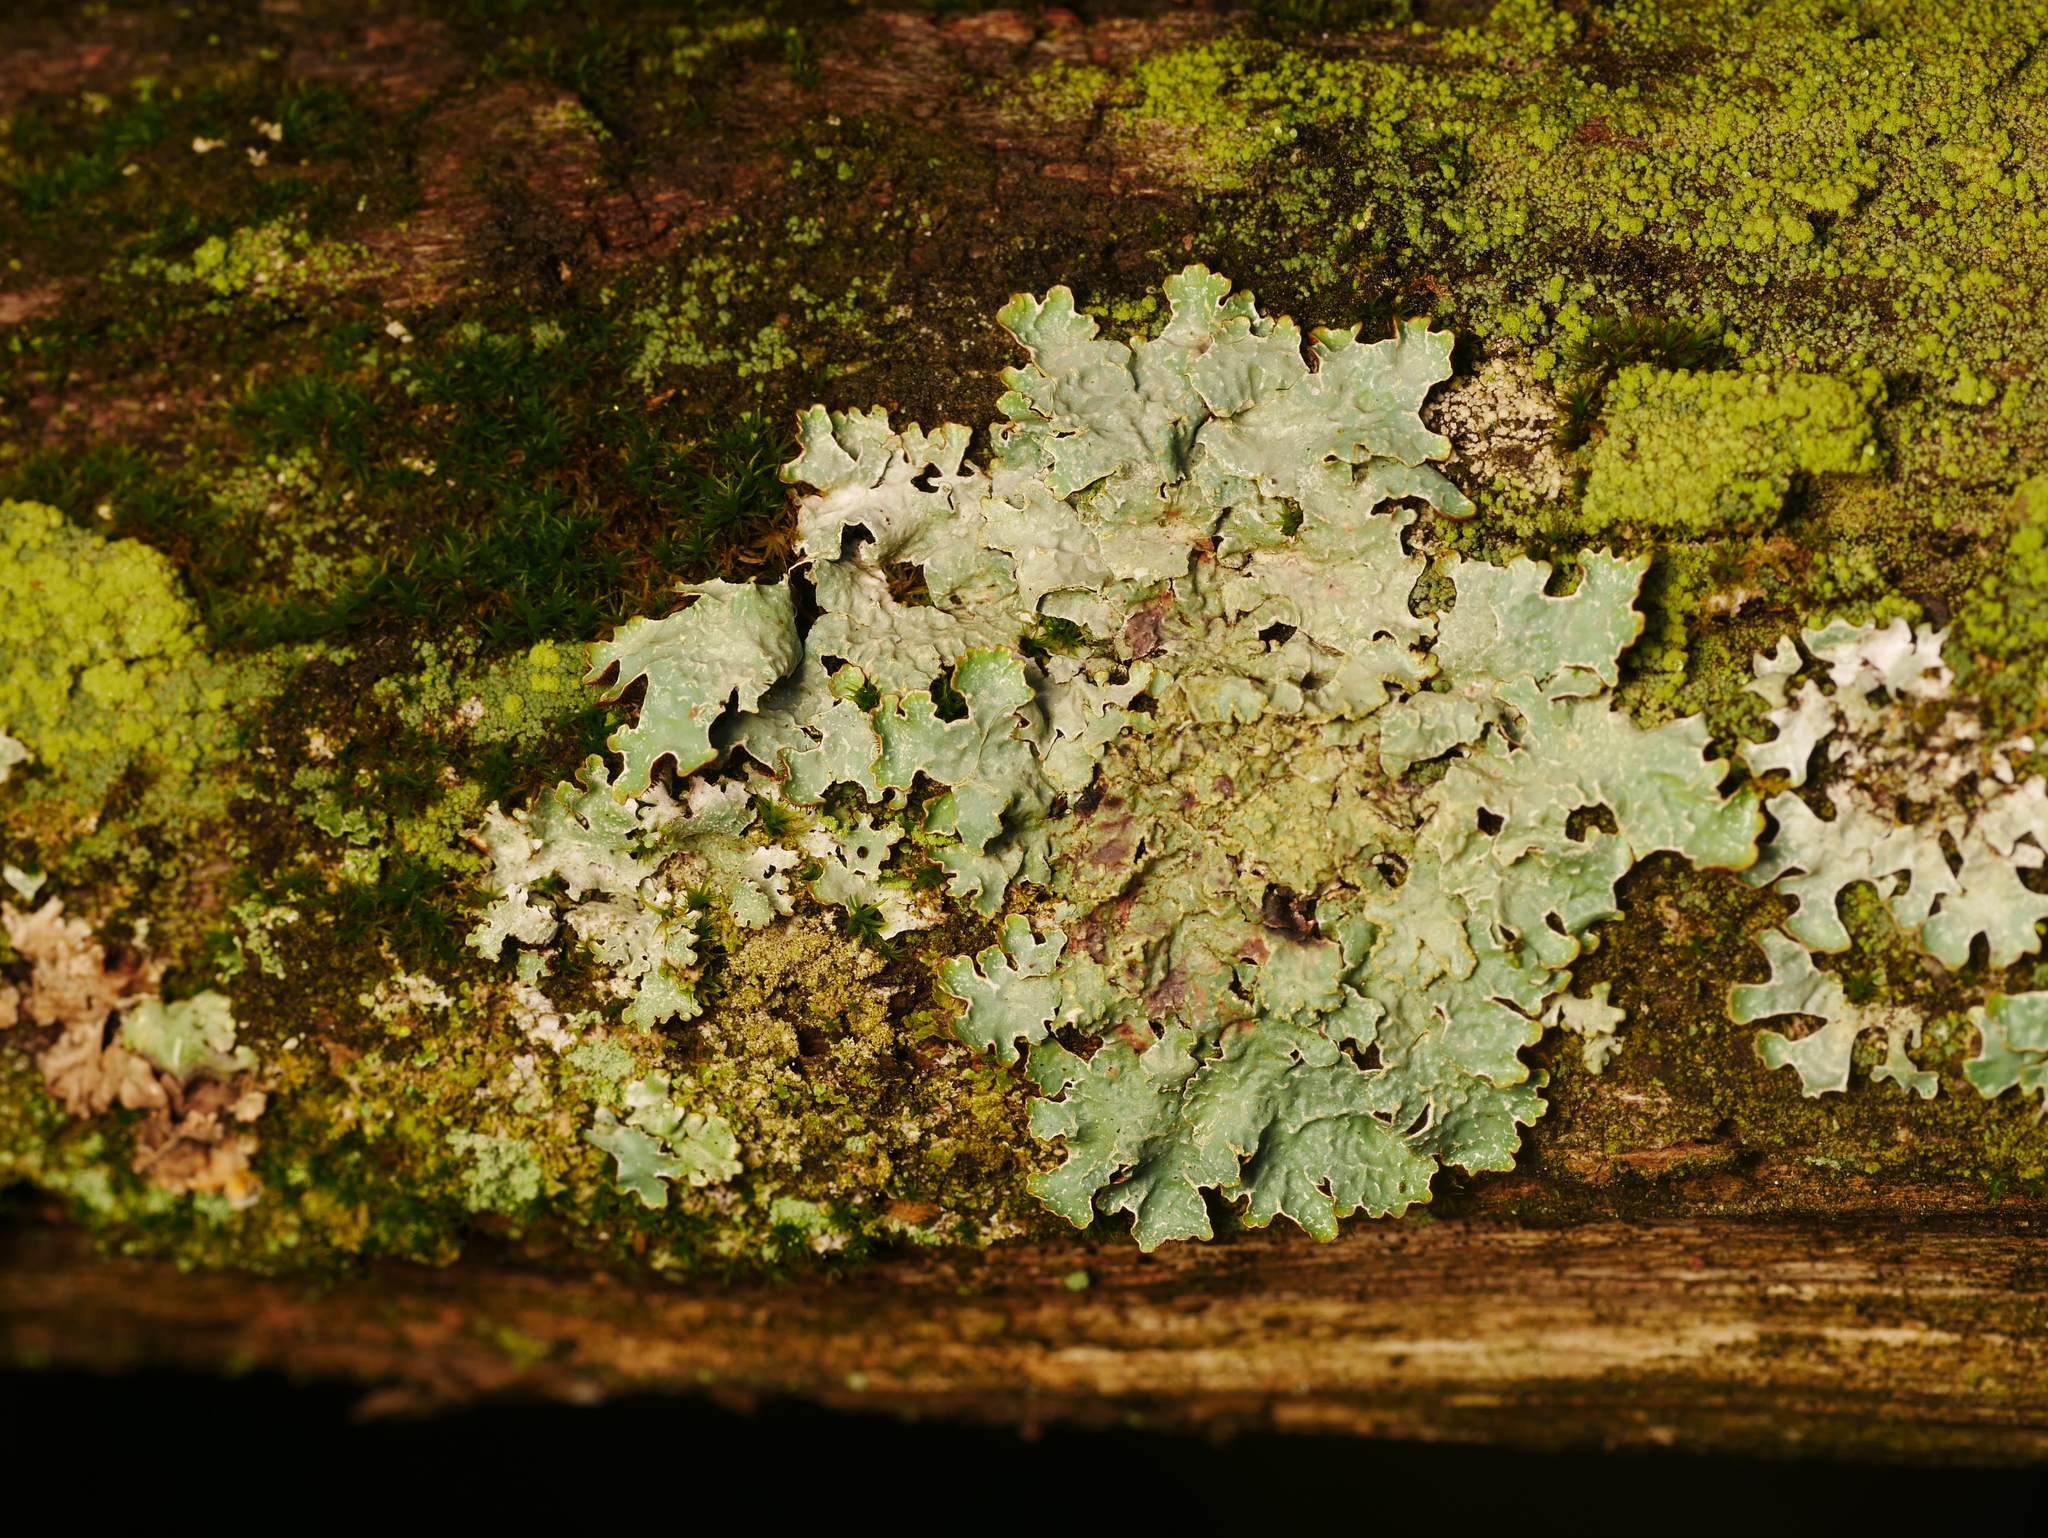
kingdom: Fungi
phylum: Ascomycota
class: Lecanoromycetes
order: Lecanorales
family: Parmeliaceae
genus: Parmelia
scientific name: Parmelia sulcata
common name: Netted shield lichen
